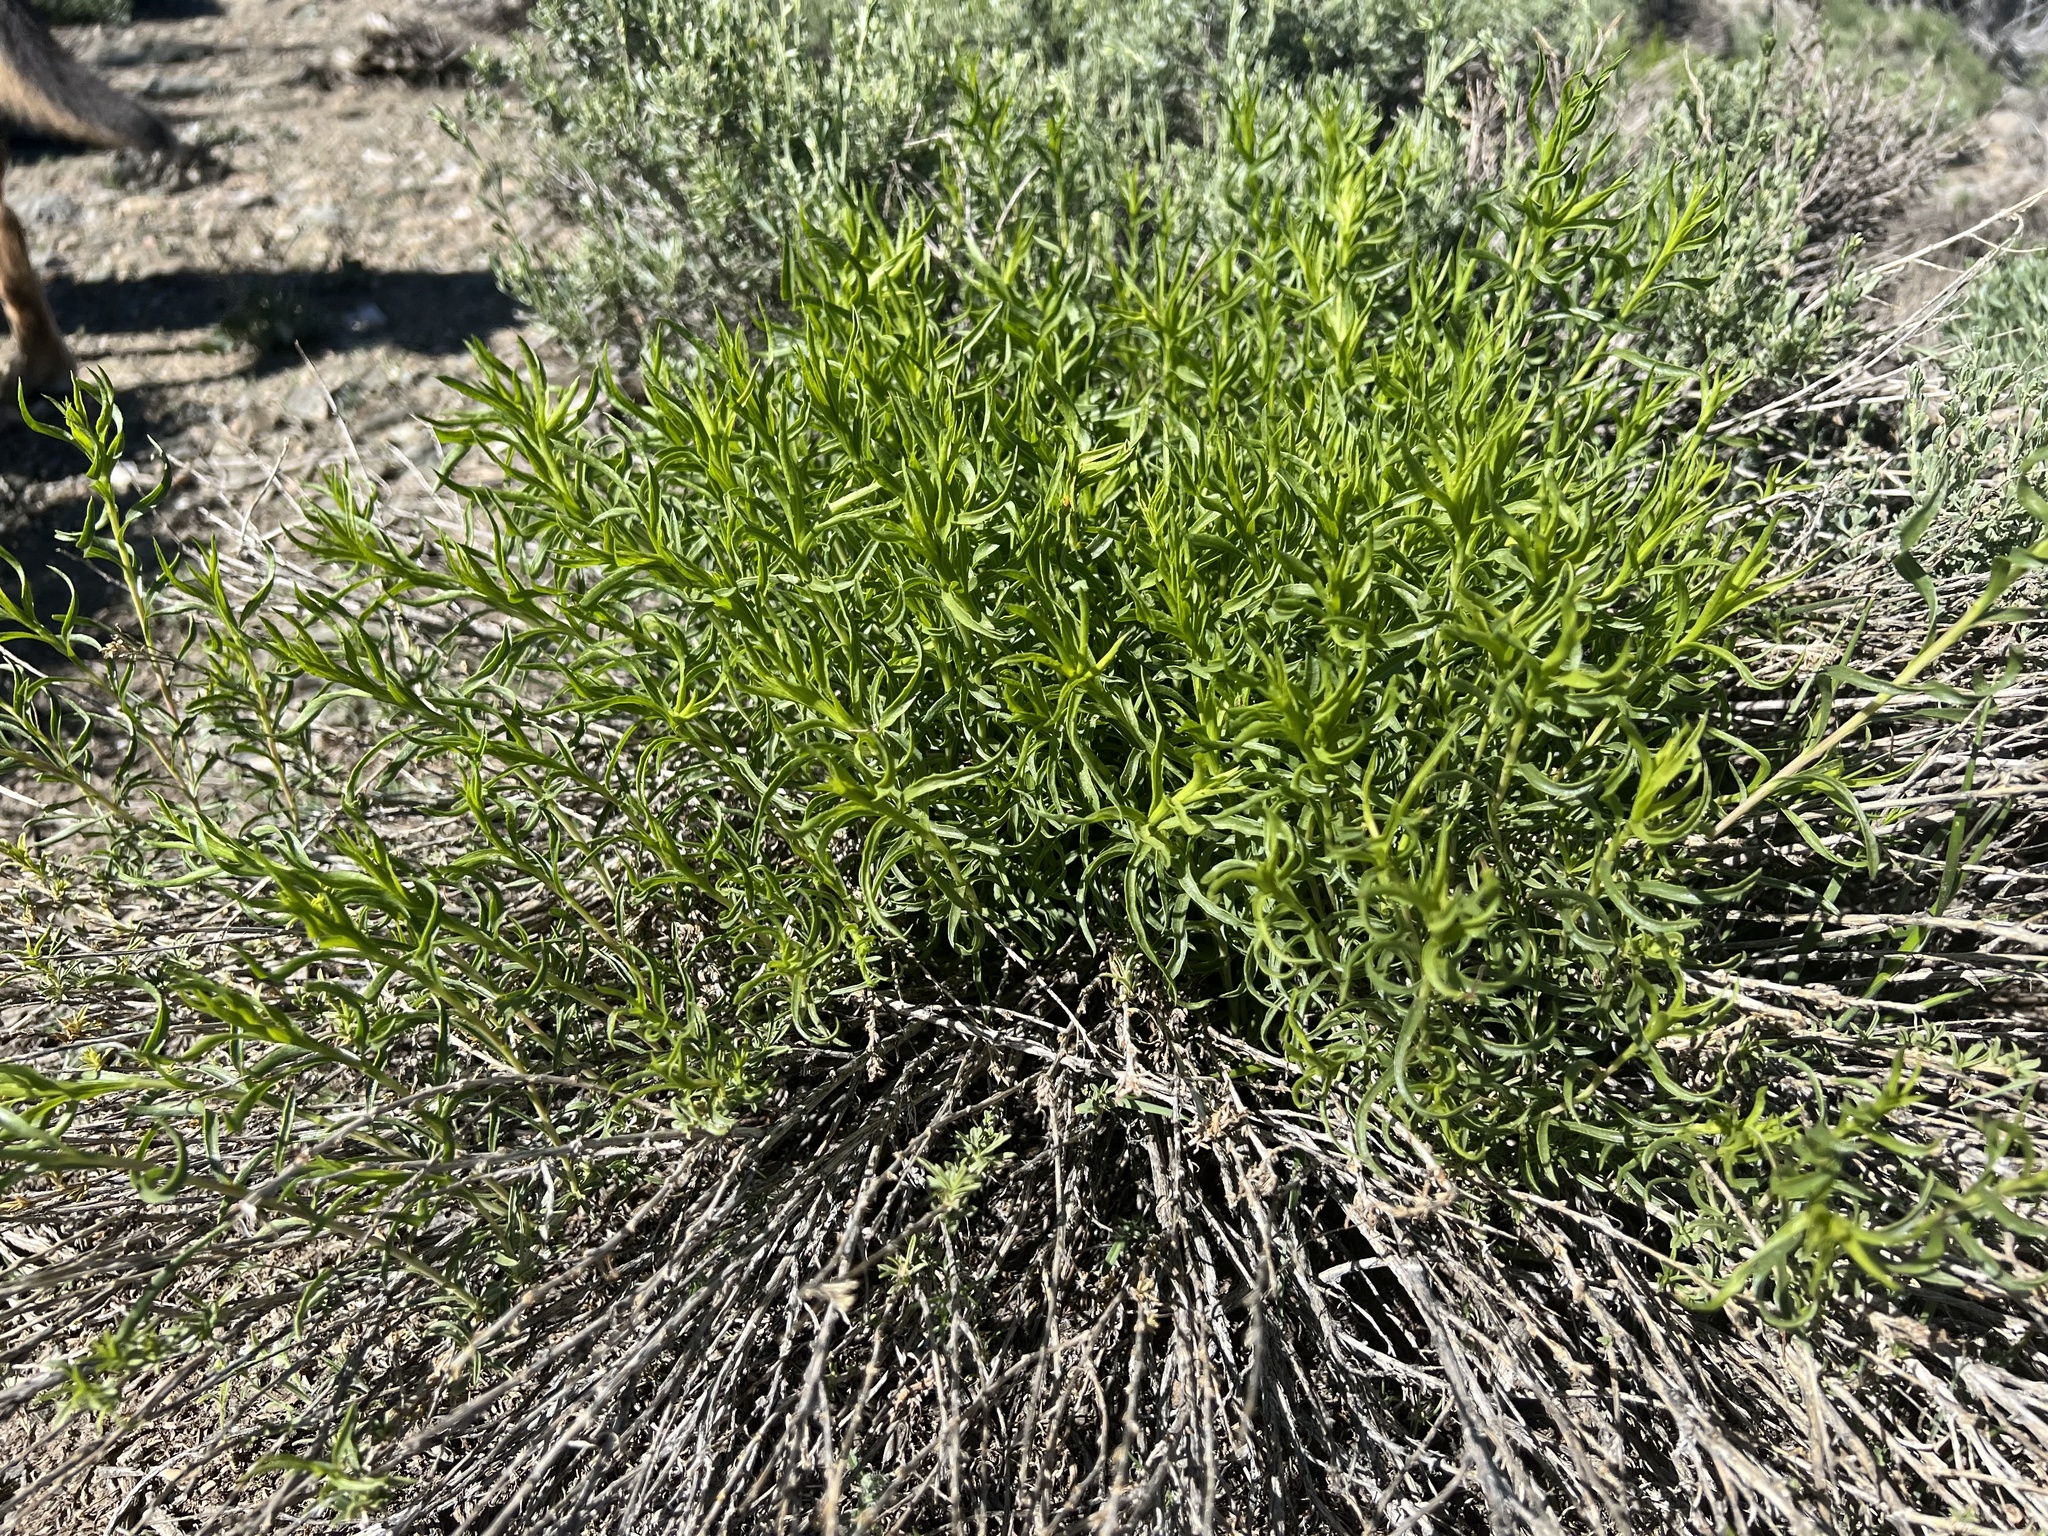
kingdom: Plantae
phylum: Tracheophyta
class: Magnoliopsida
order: Asterales
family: Asteraceae
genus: Chrysothamnus
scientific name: Chrysothamnus viscidiflorus
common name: Yellow rabbitbrush
